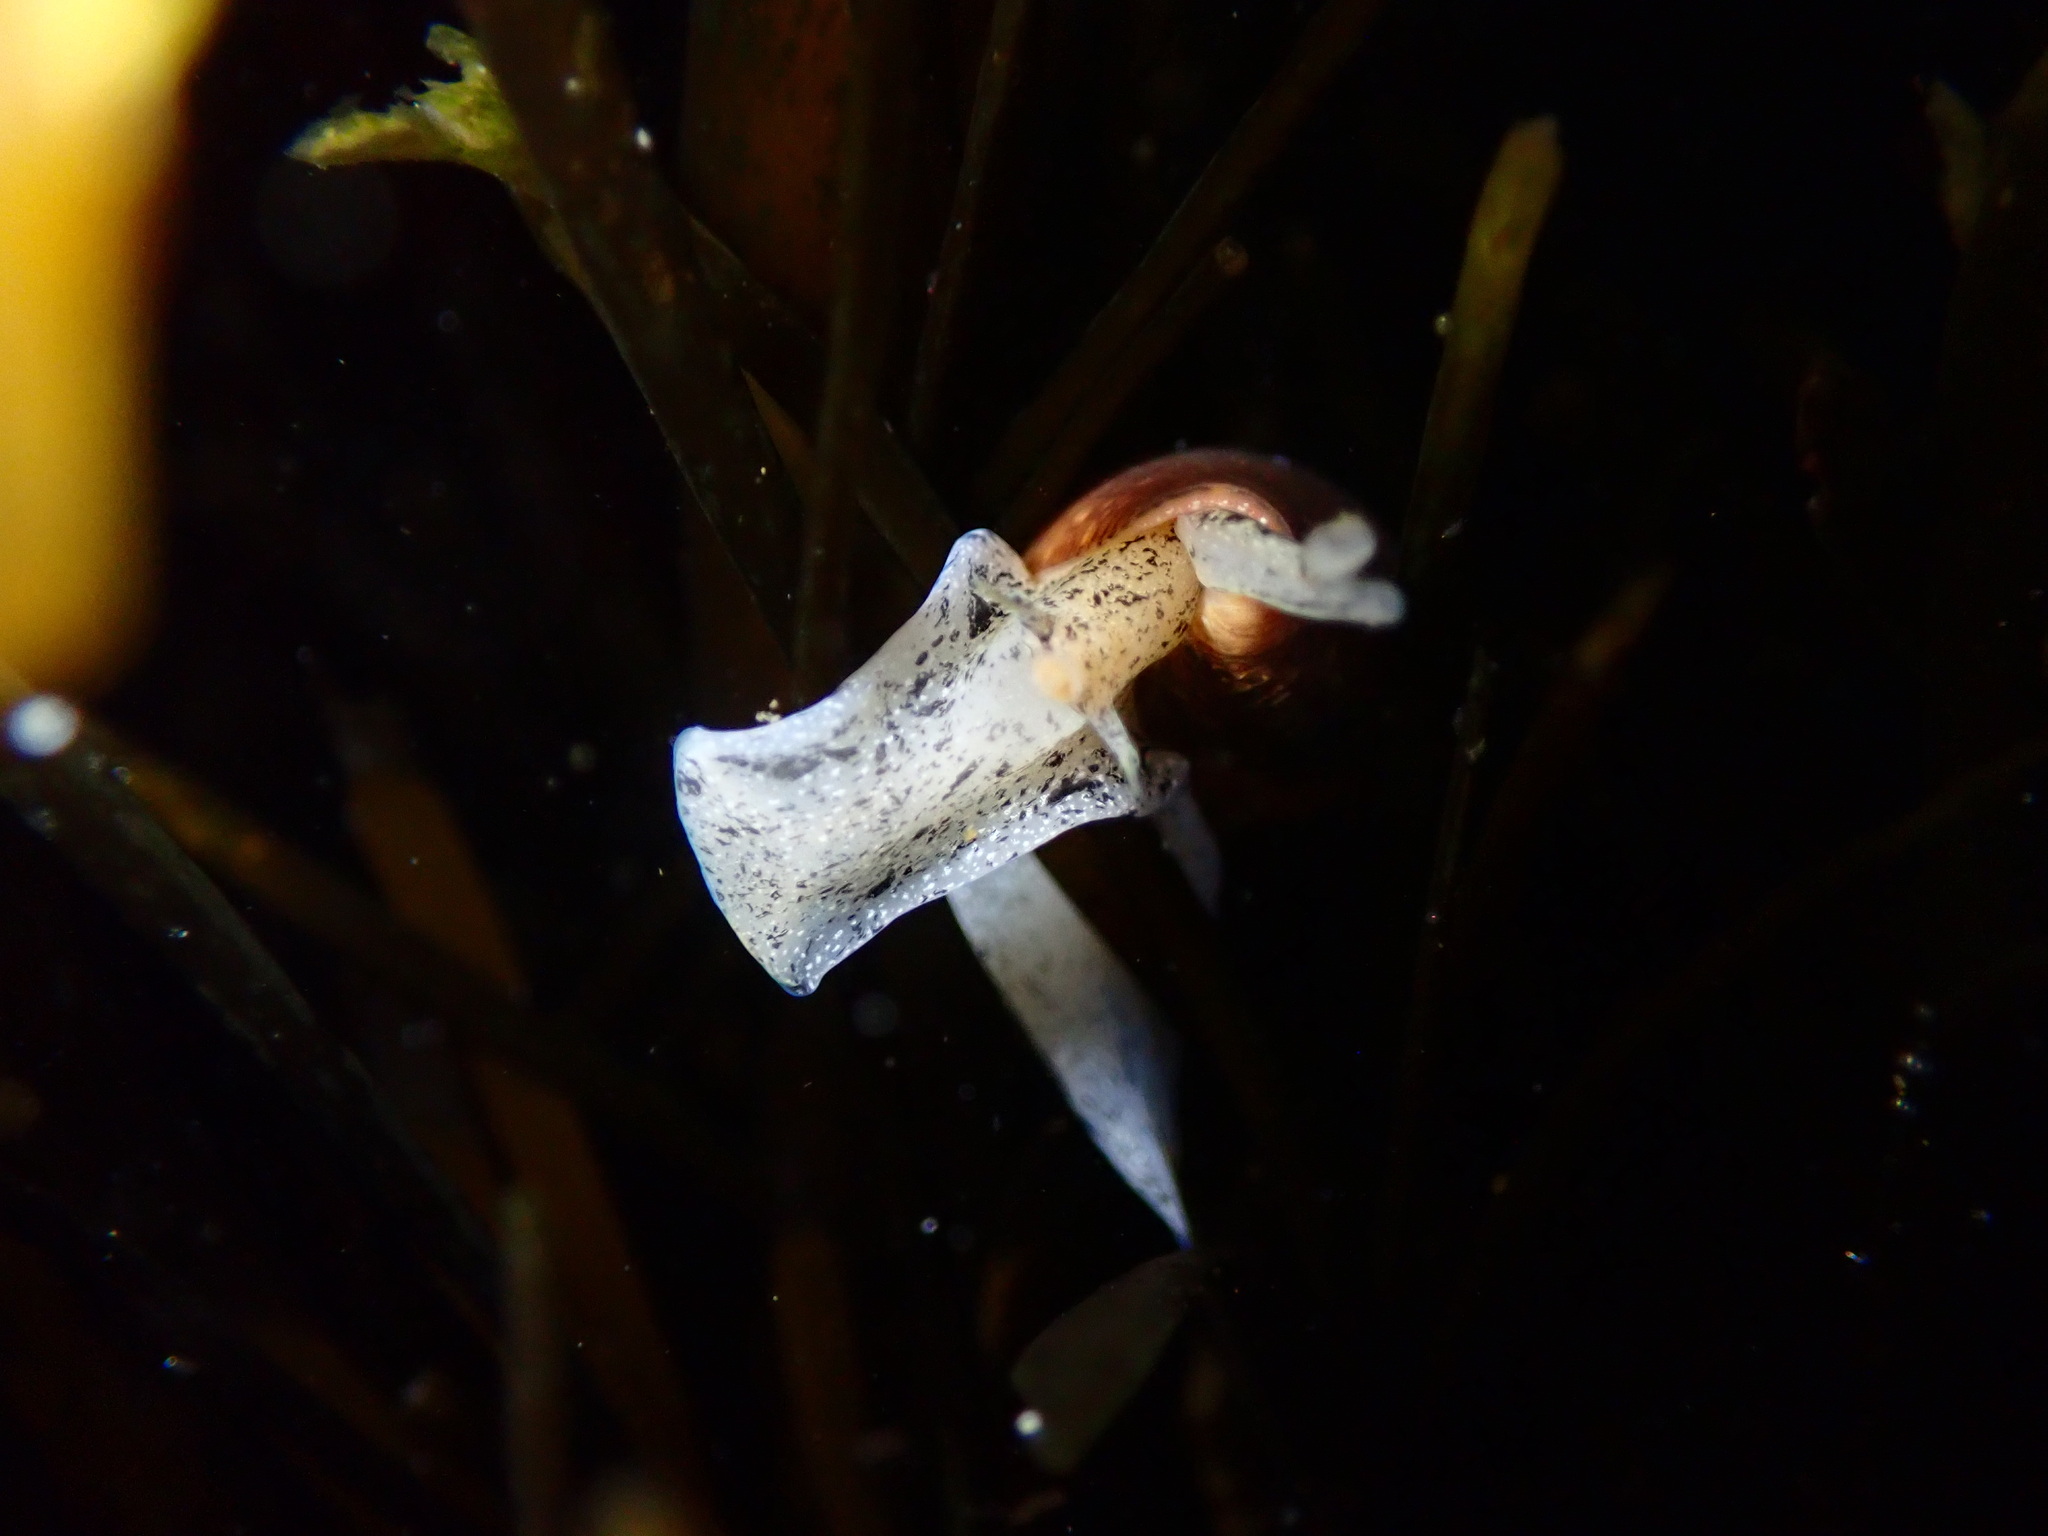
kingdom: Animalia
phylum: Mollusca
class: Gastropoda
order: Neogastropoda
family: Conidae
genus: Californiconus
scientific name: Californiconus californicus
